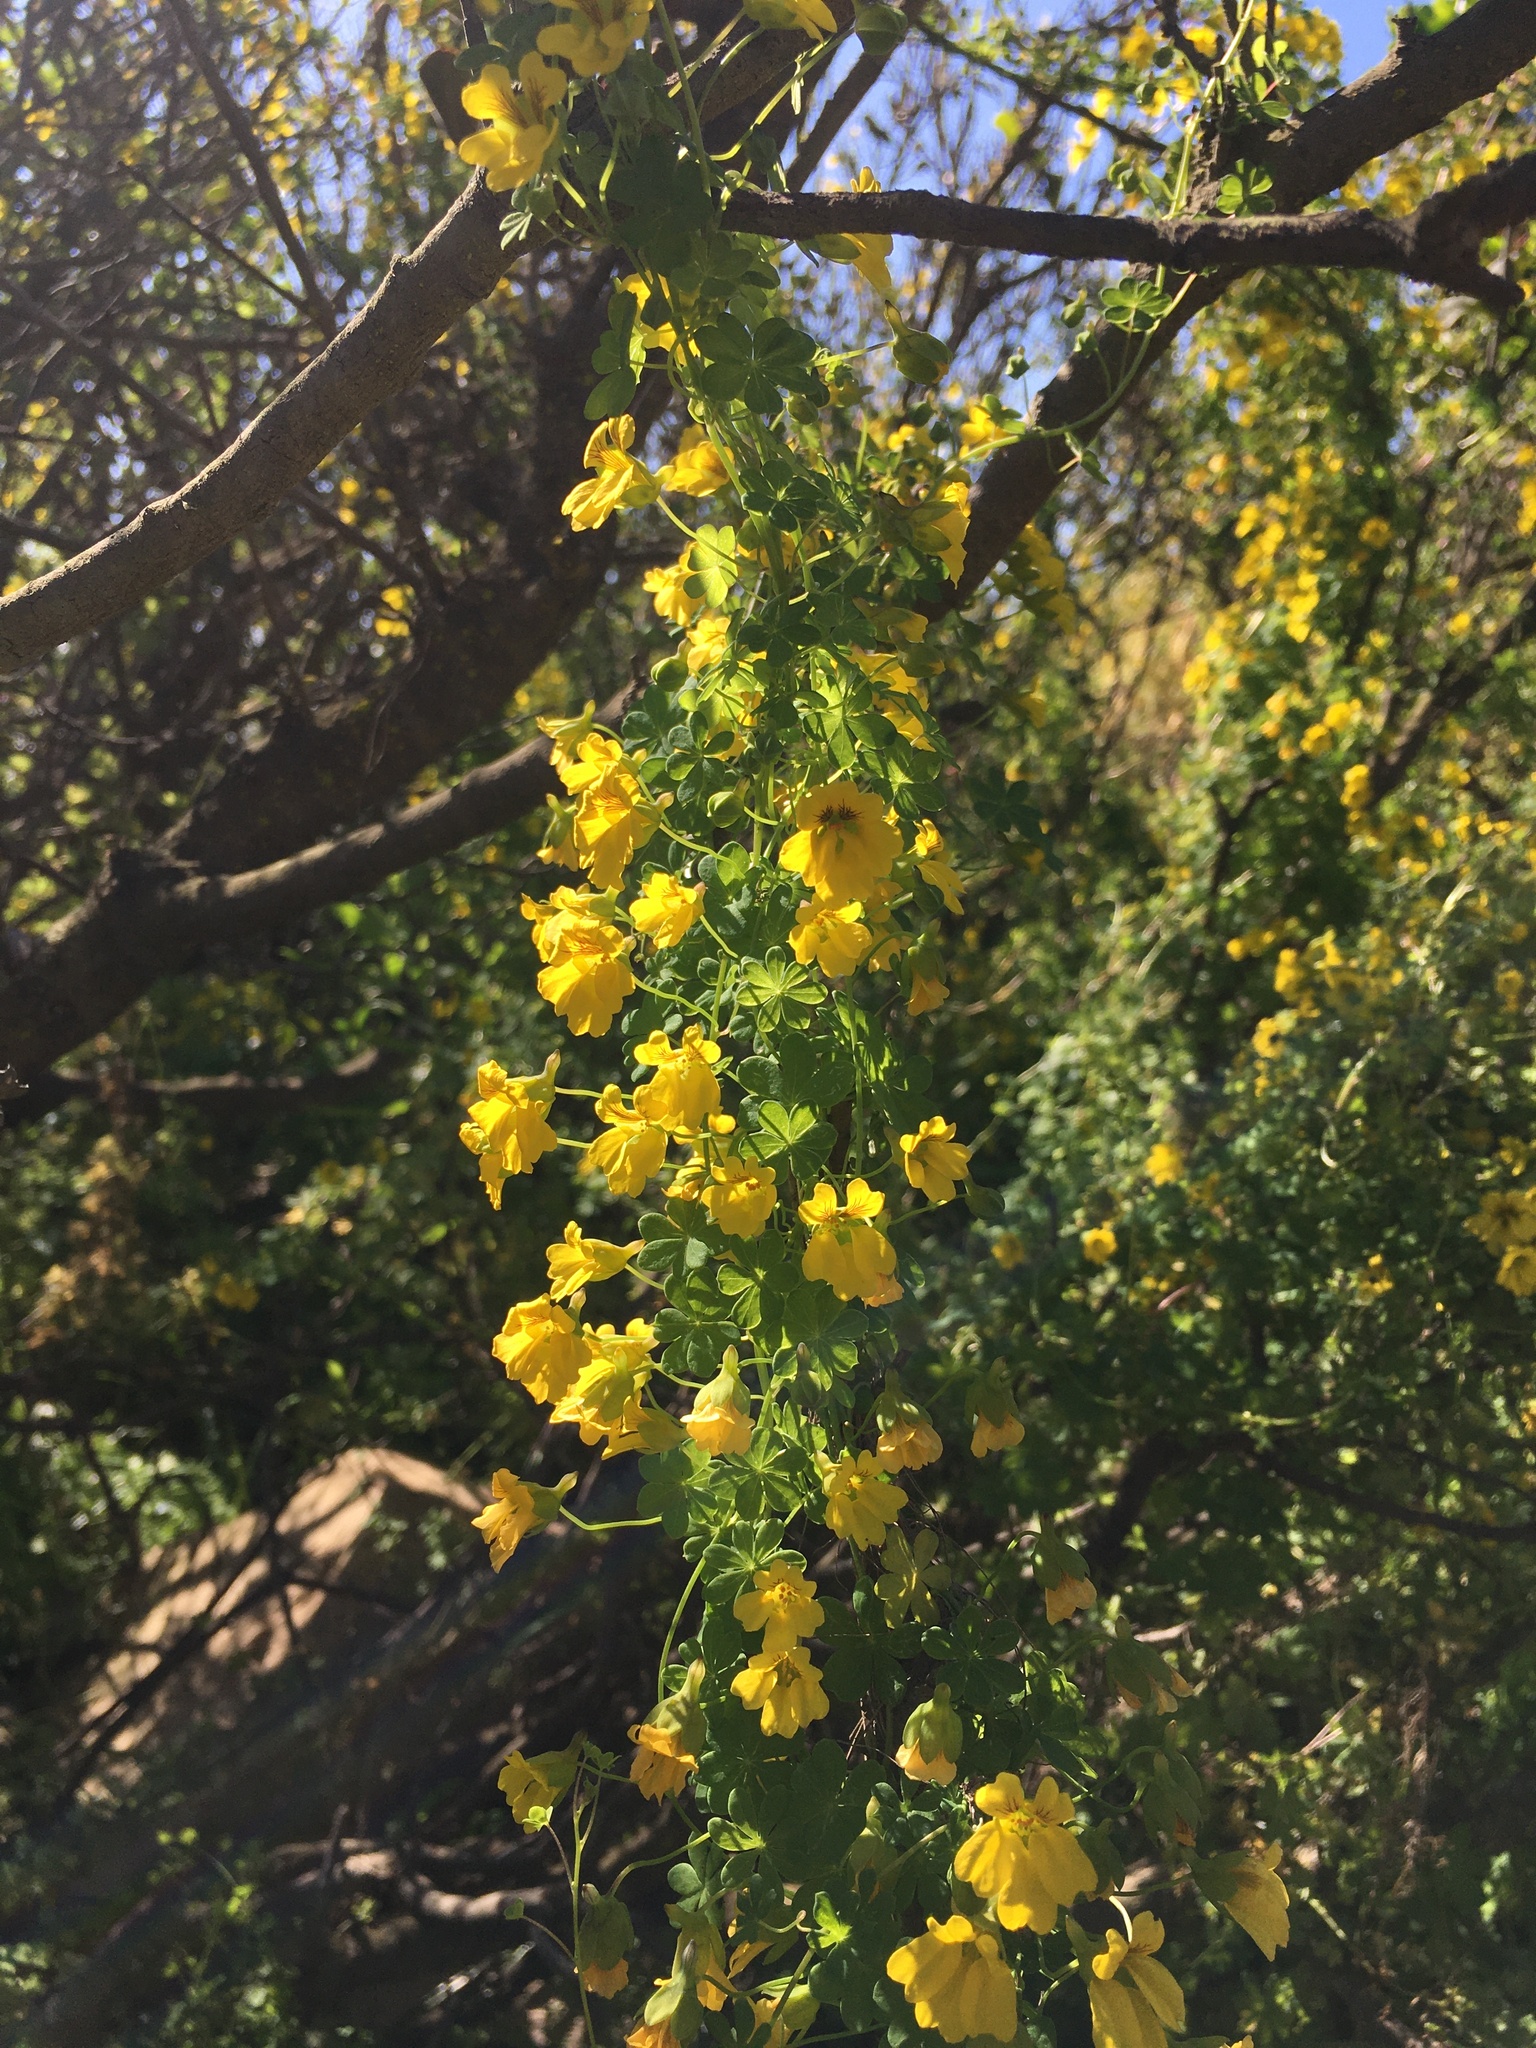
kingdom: Plantae
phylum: Tracheophyta
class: Magnoliopsida
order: Brassicales
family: Tropaeolaceae
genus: Tropaeolum
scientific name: Tropaeolum brachyceras
